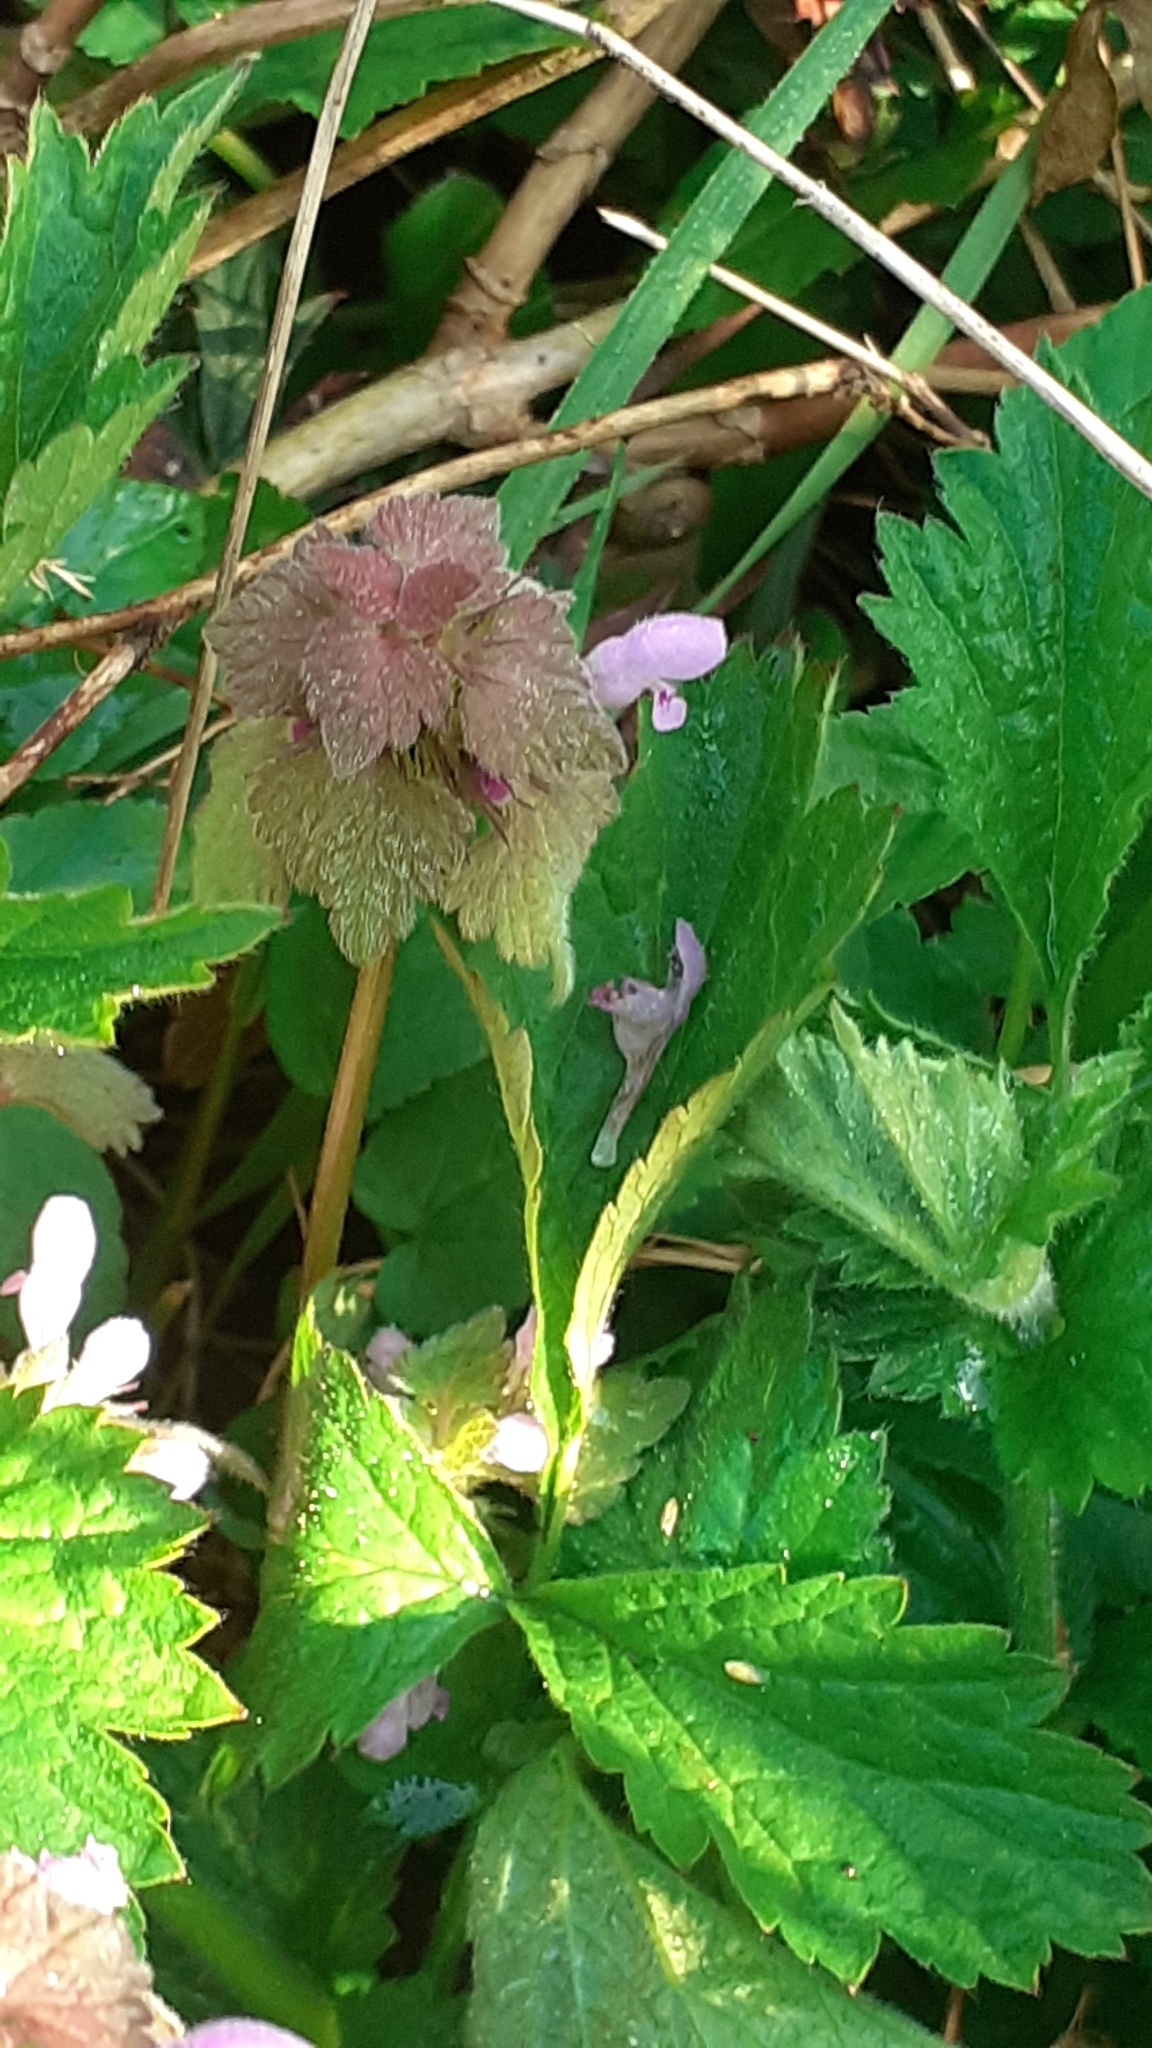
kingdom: Plantae
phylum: Tracheophyta
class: Magnoliopsida
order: Lamiales
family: Lamiaceae
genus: Lamium
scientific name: Lamium purpureum
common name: Red dead-nettle
